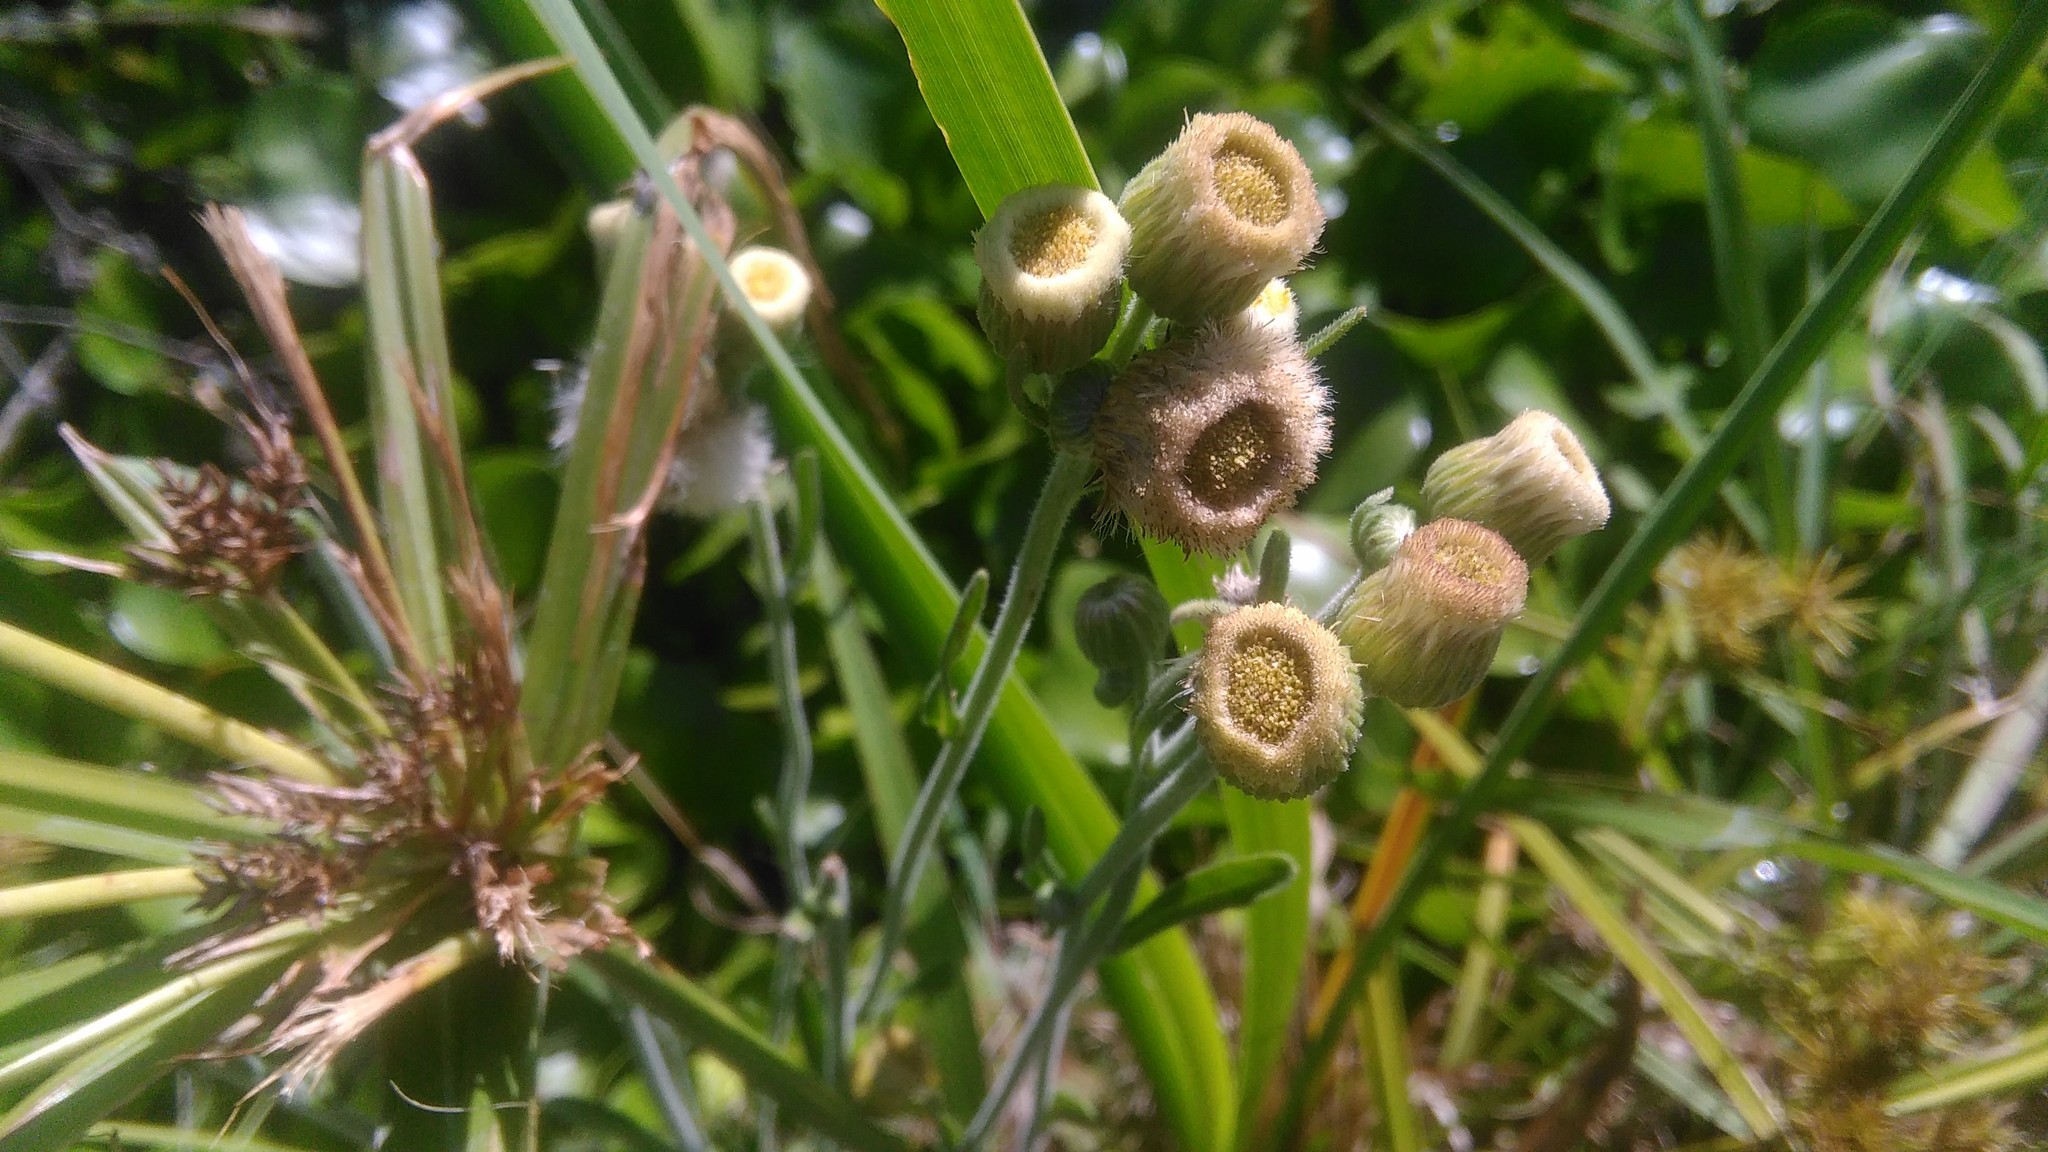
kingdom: Plantae
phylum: Tracheophyta
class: Magnoliopsida
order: Asterales
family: Asteraceae
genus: Erigeron
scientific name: Erigeron primulifolius
